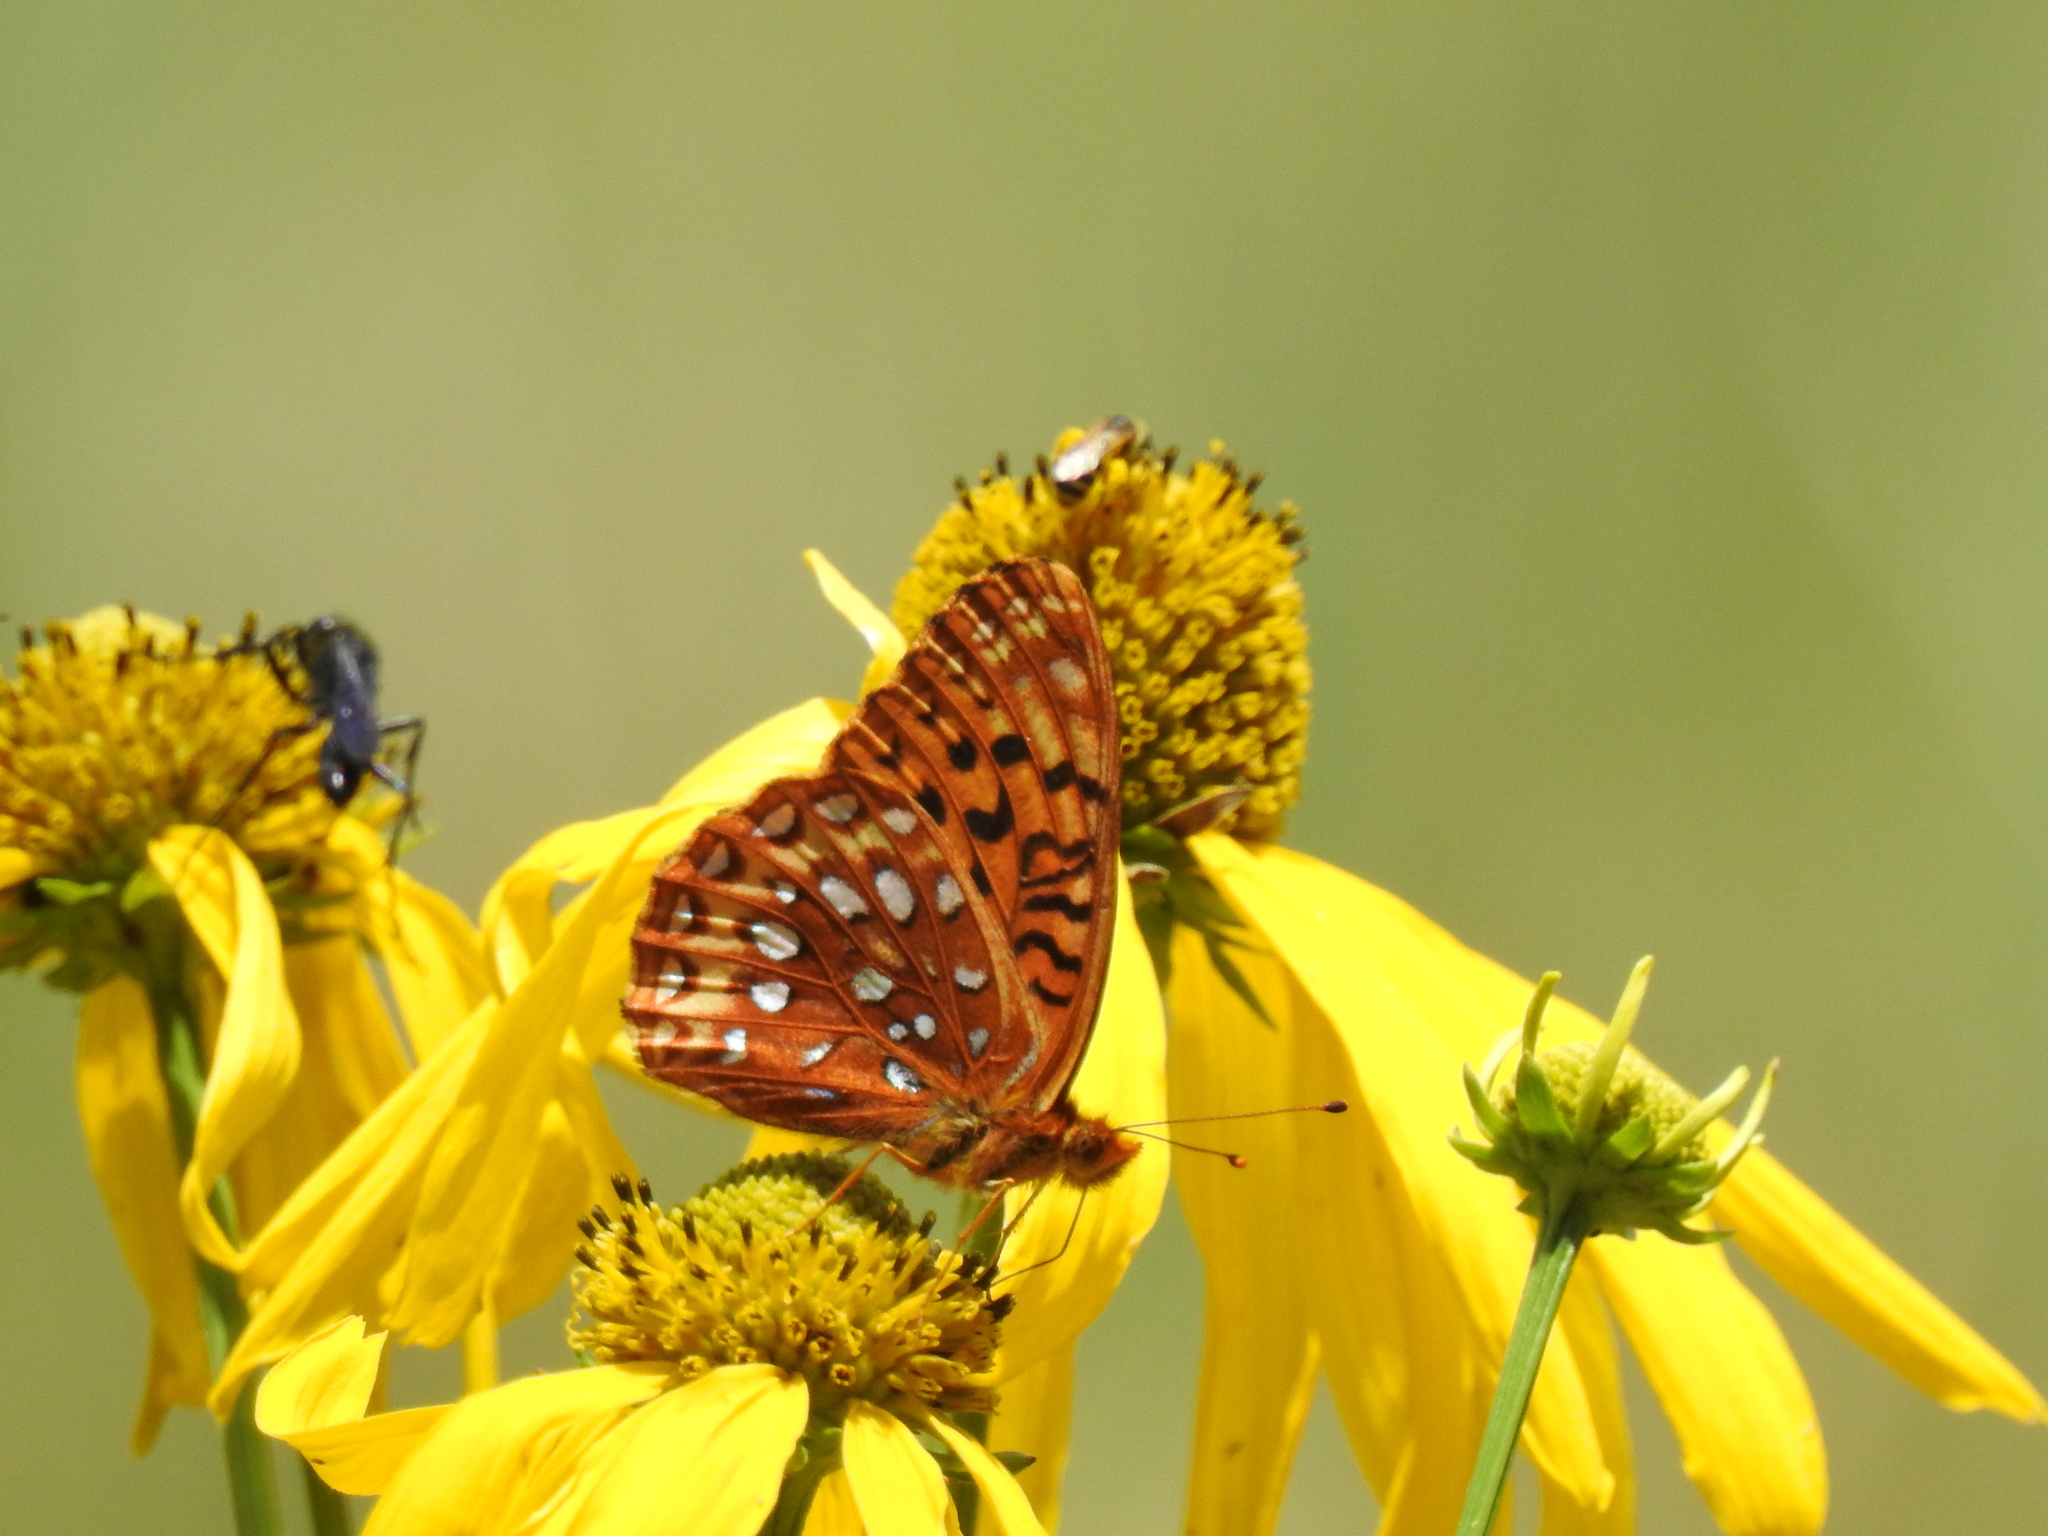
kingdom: Animalia
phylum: Arthropoda
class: Insecta
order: Lepidoptera
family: Nymphalidae
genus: Speyeria
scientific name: Speyeria atlantis
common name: Atlantis fritillary
